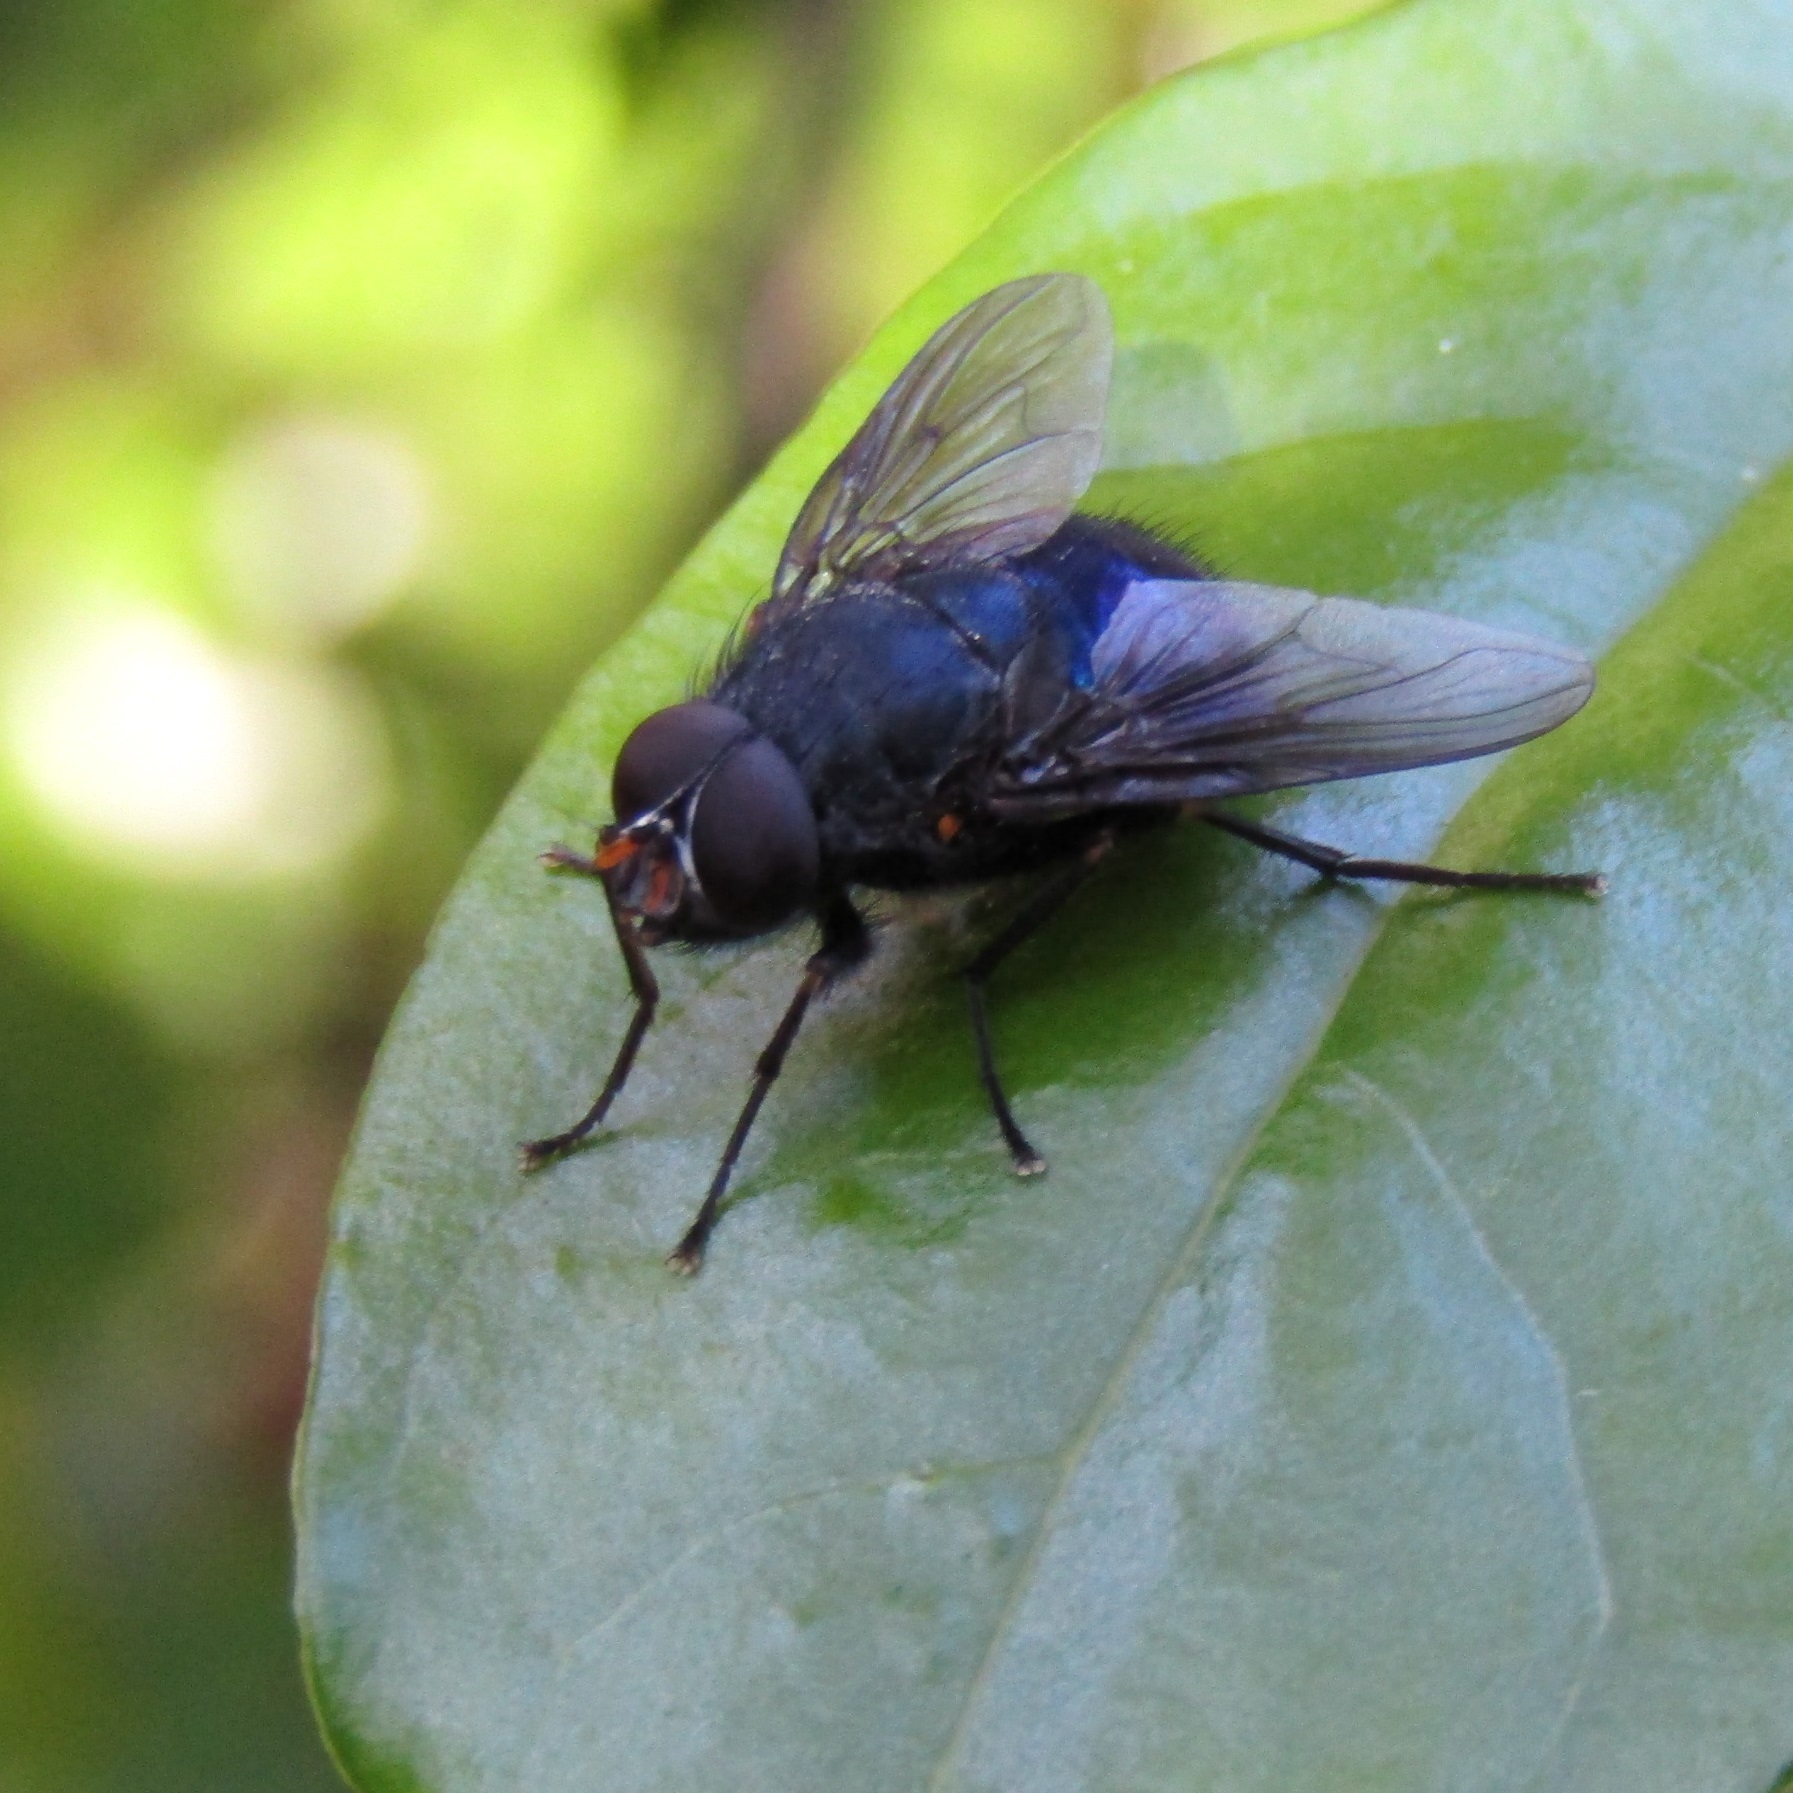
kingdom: Animalia
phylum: Arthropoda
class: Insecta
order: Diptera
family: Muscidae
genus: Calliphoroides
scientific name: Calliphoroides antennatis
